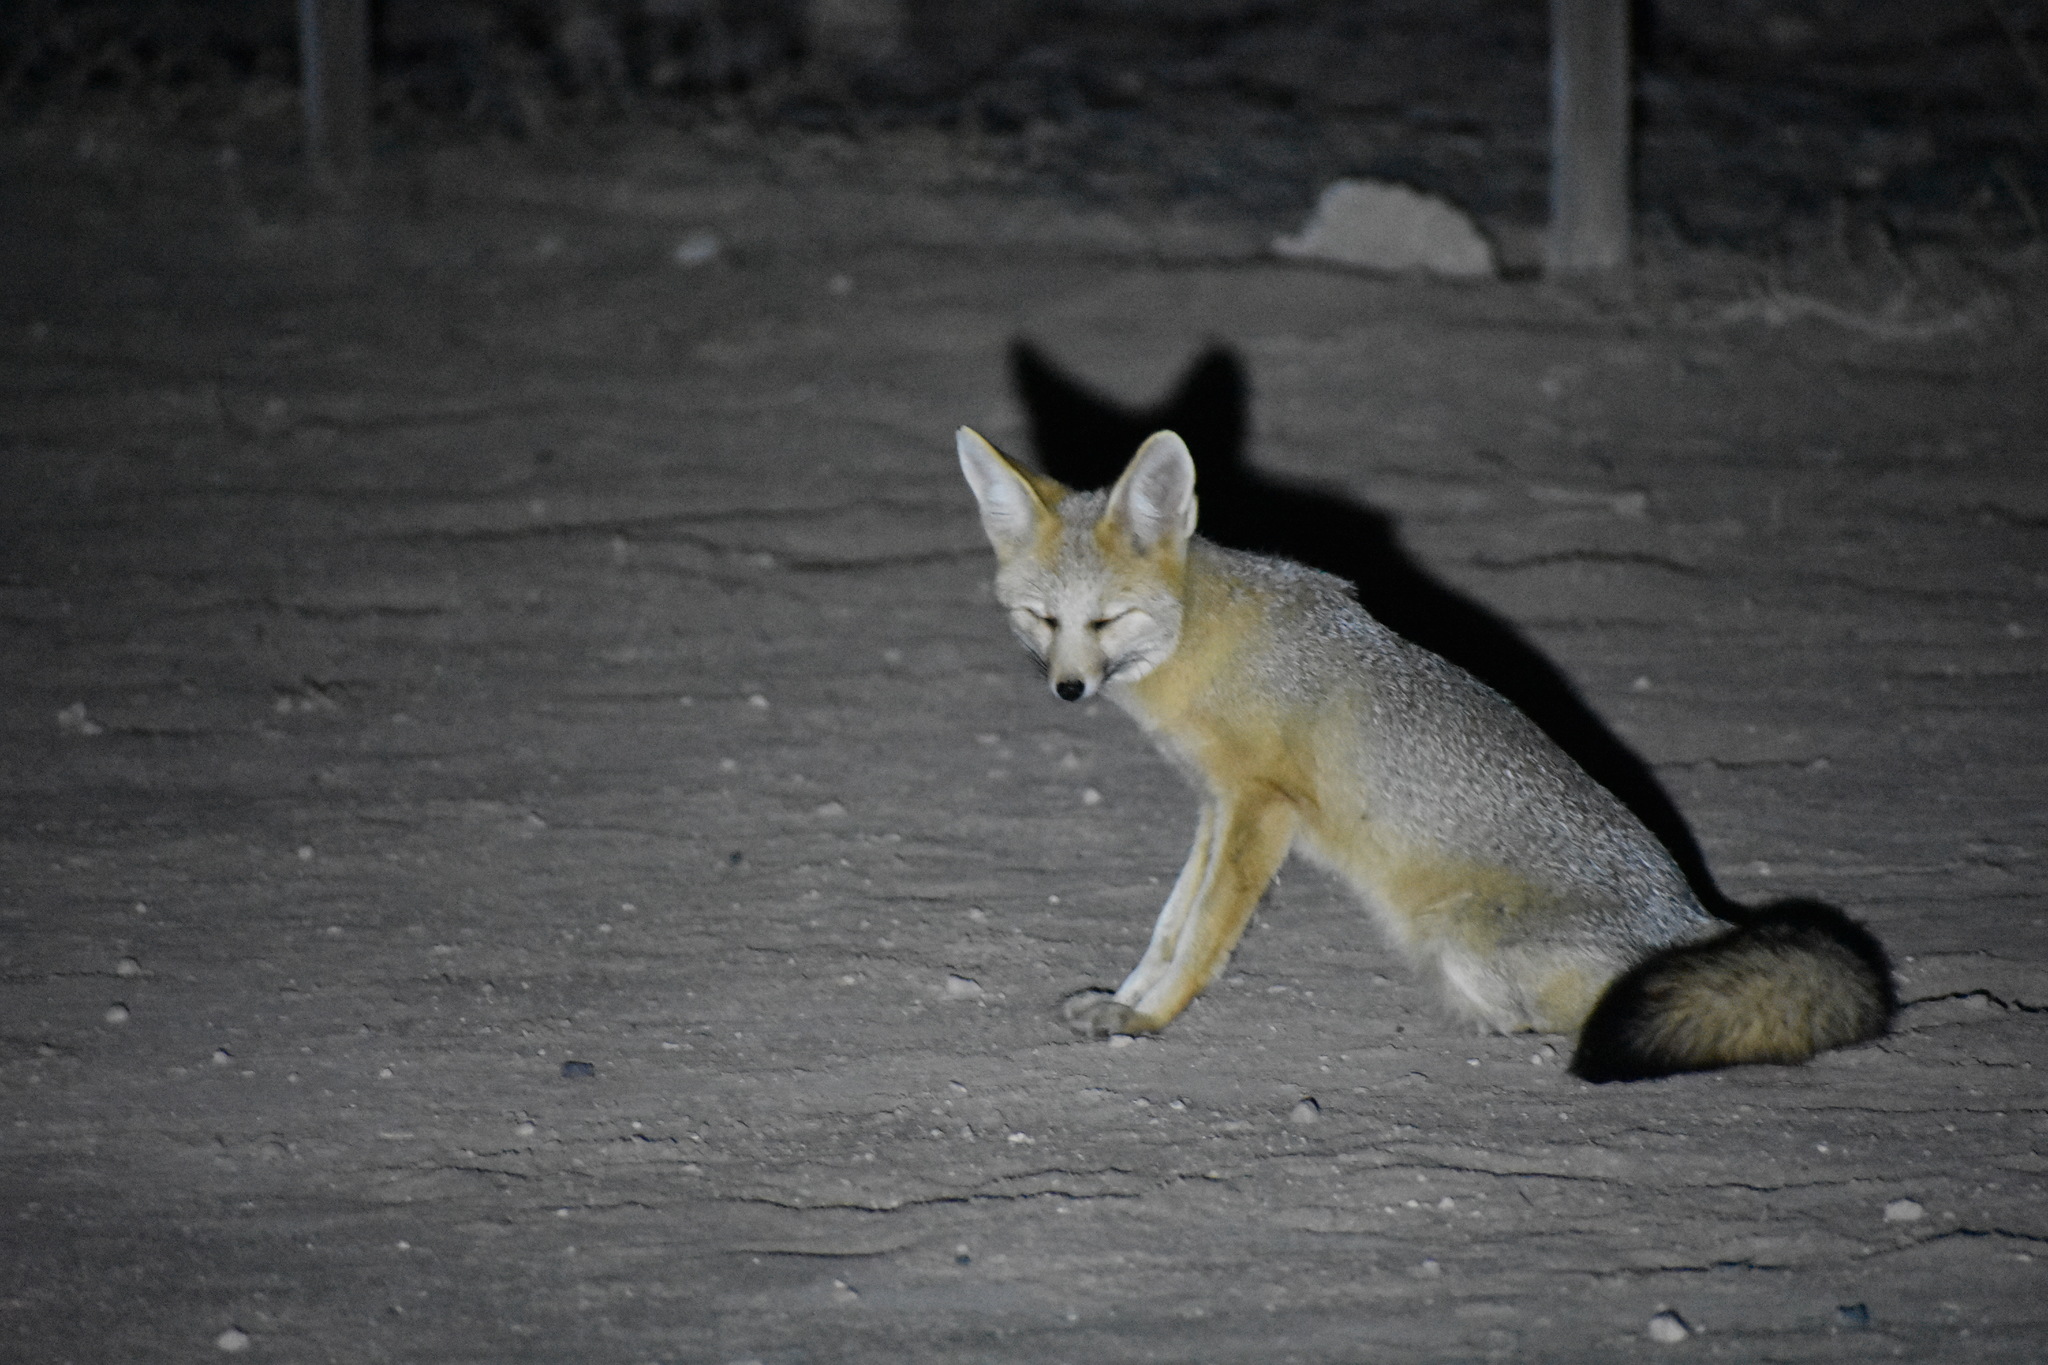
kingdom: Animalia
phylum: Chordata
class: Mammalia
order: Carnivora
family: Canidae
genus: Vulpes
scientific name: Vulpes chama
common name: Cape fox
